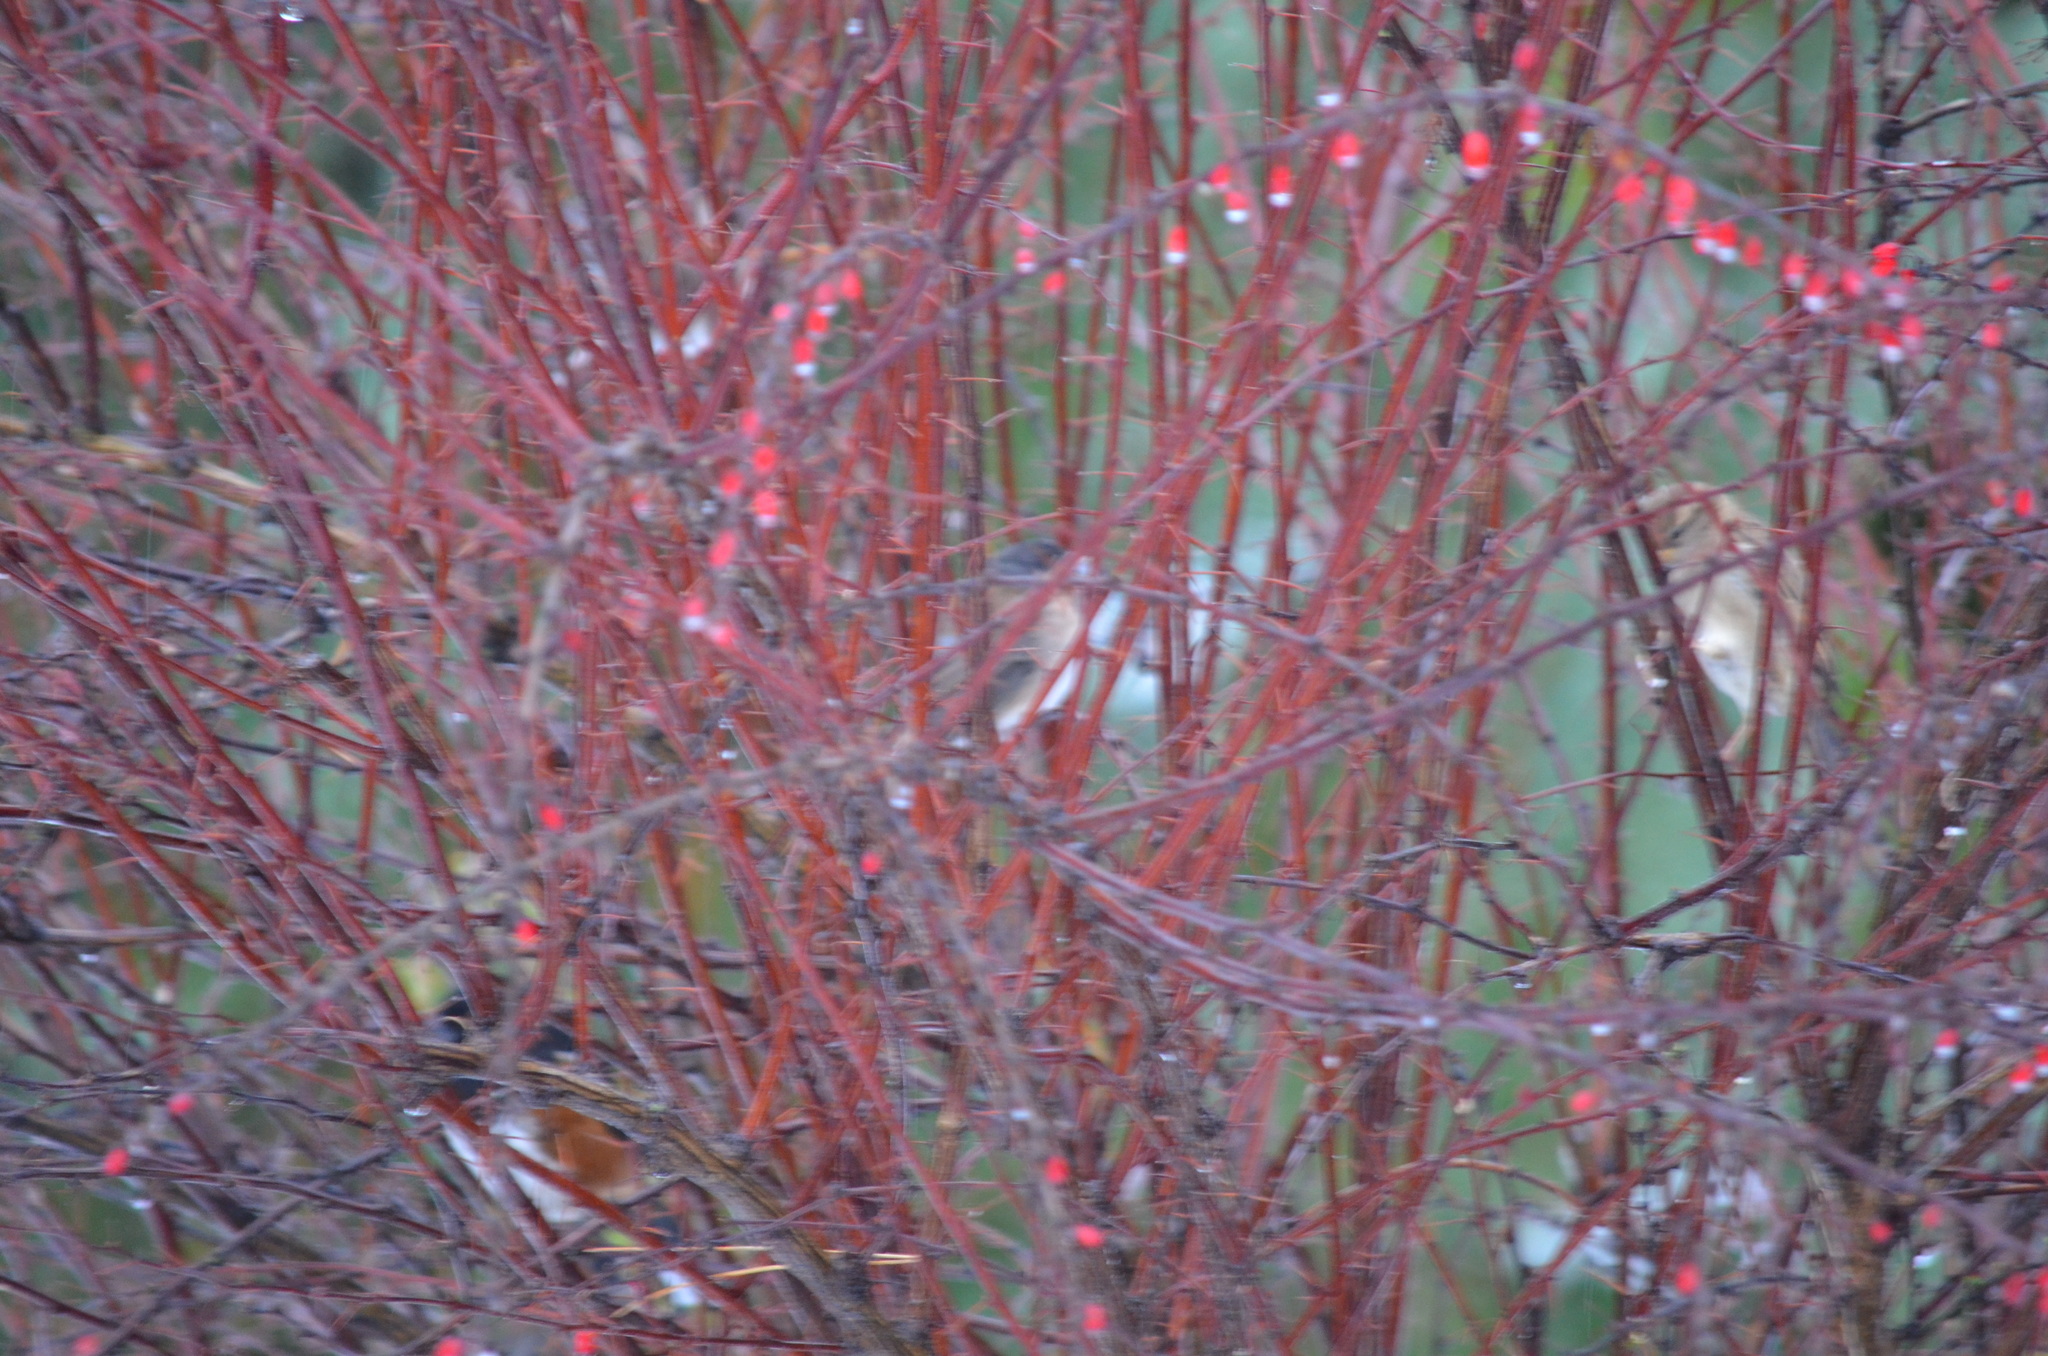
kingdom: Animalia
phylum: Chordata
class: Aves
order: Passeriformes
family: Passerellidae
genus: Junco
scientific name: Junco hyemalis
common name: Dark-eyed junco
